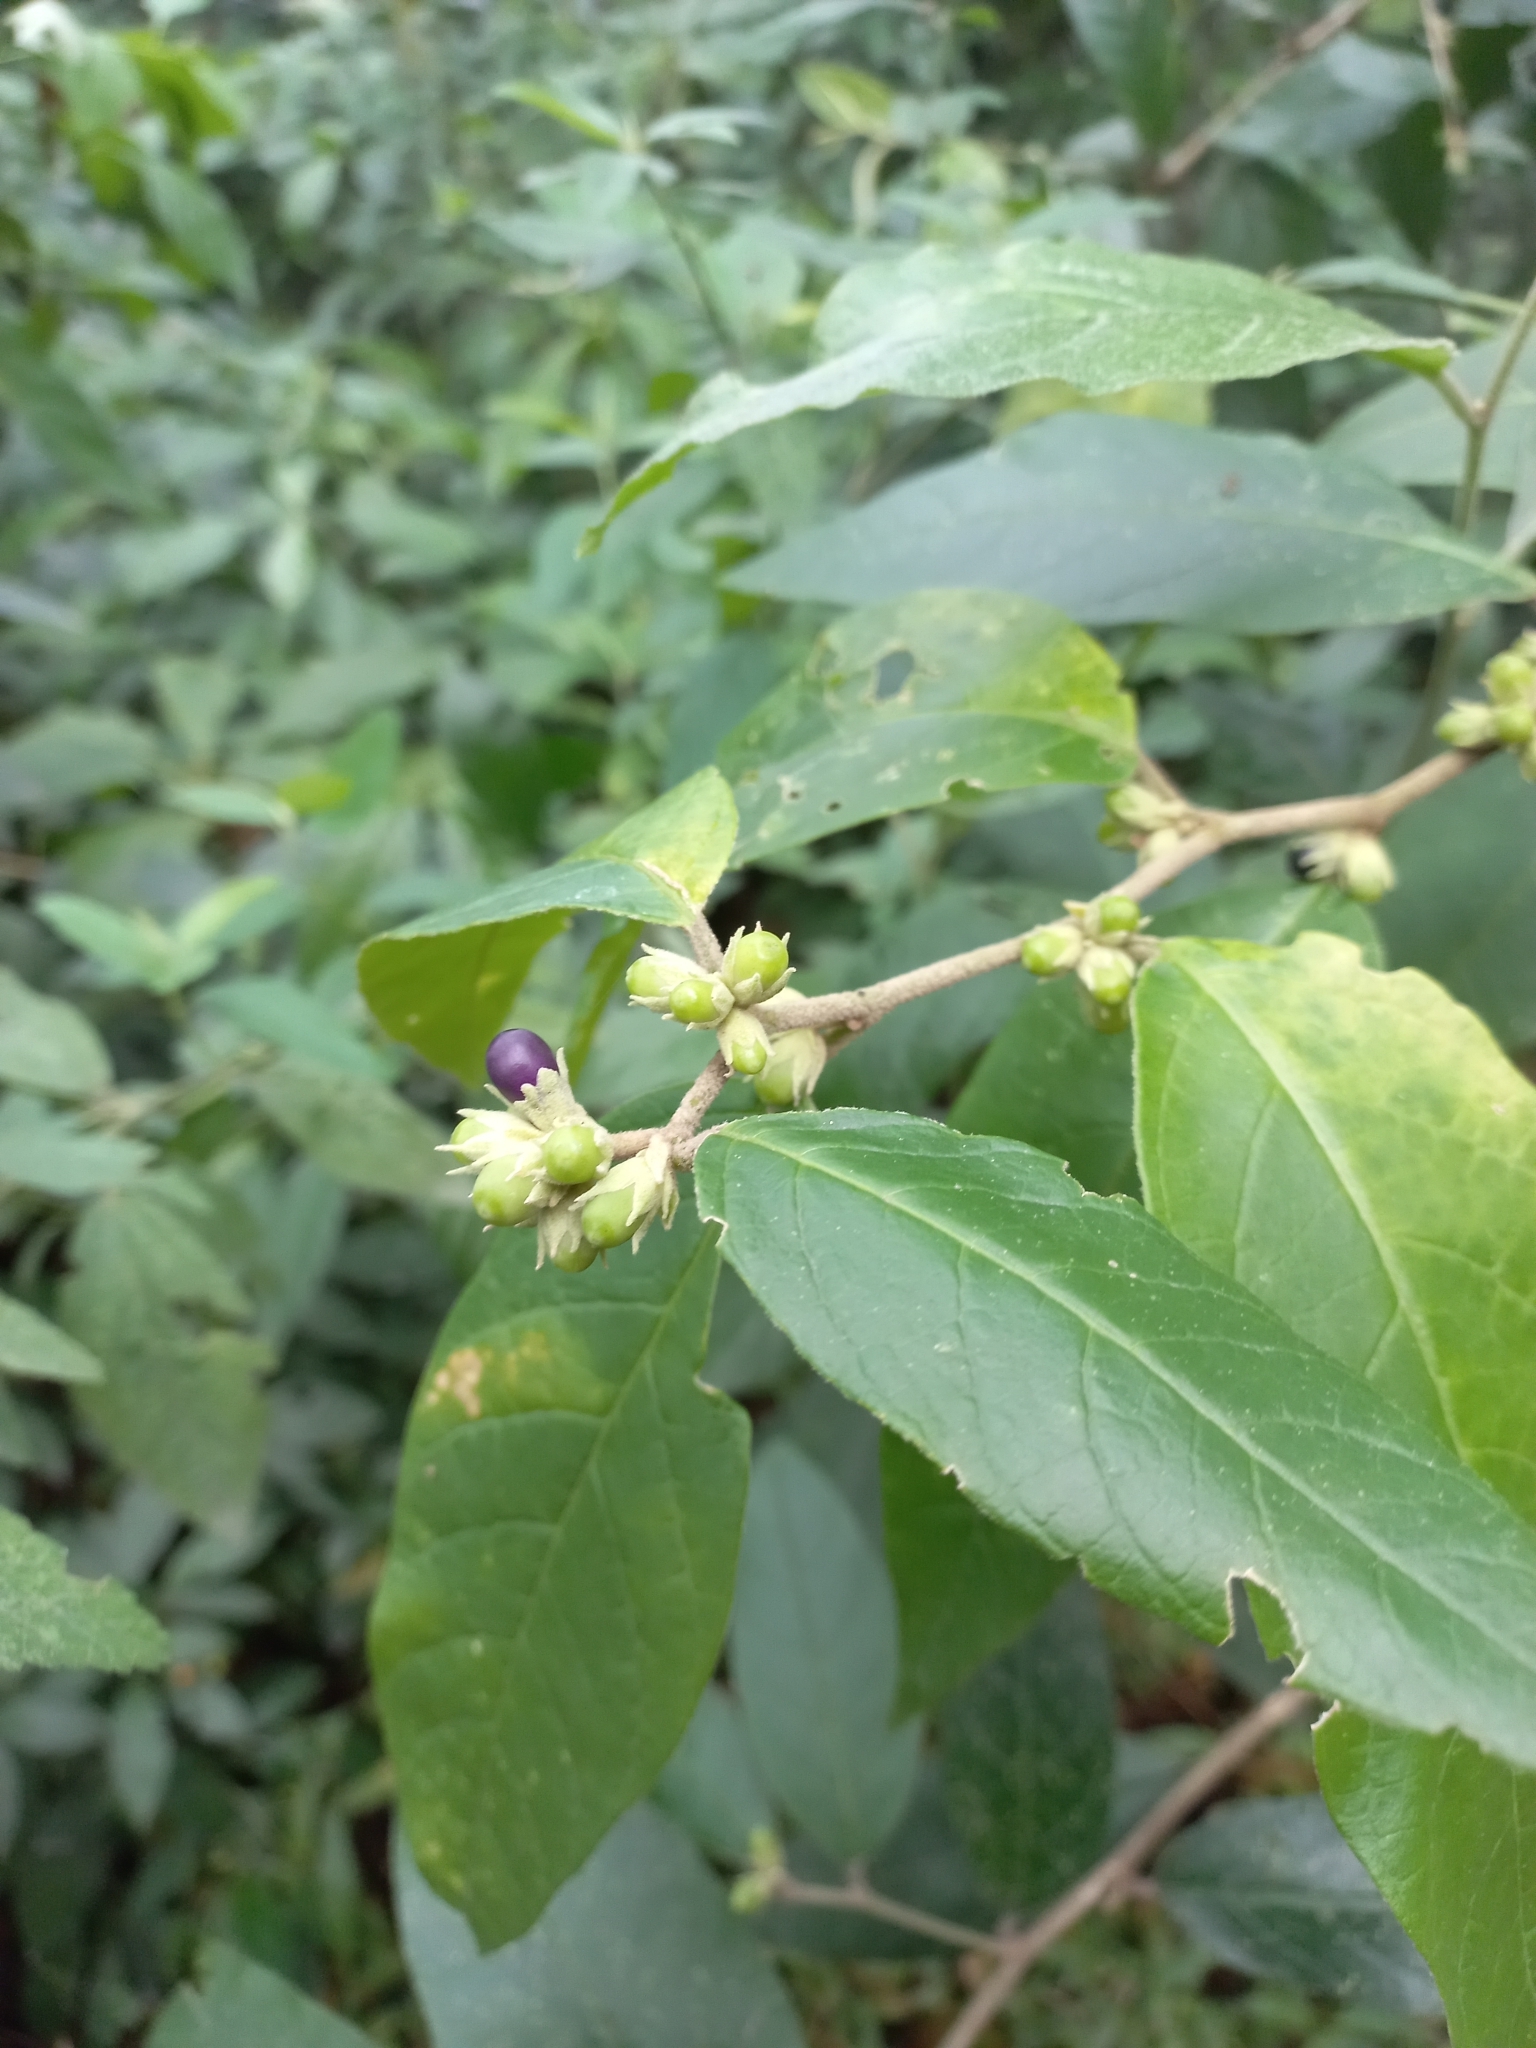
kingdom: Plantae
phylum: Tracheophyta
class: Magnoliopsida
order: Solanales
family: Solanaceae
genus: Cestrum
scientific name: Cestrum strigillatum
